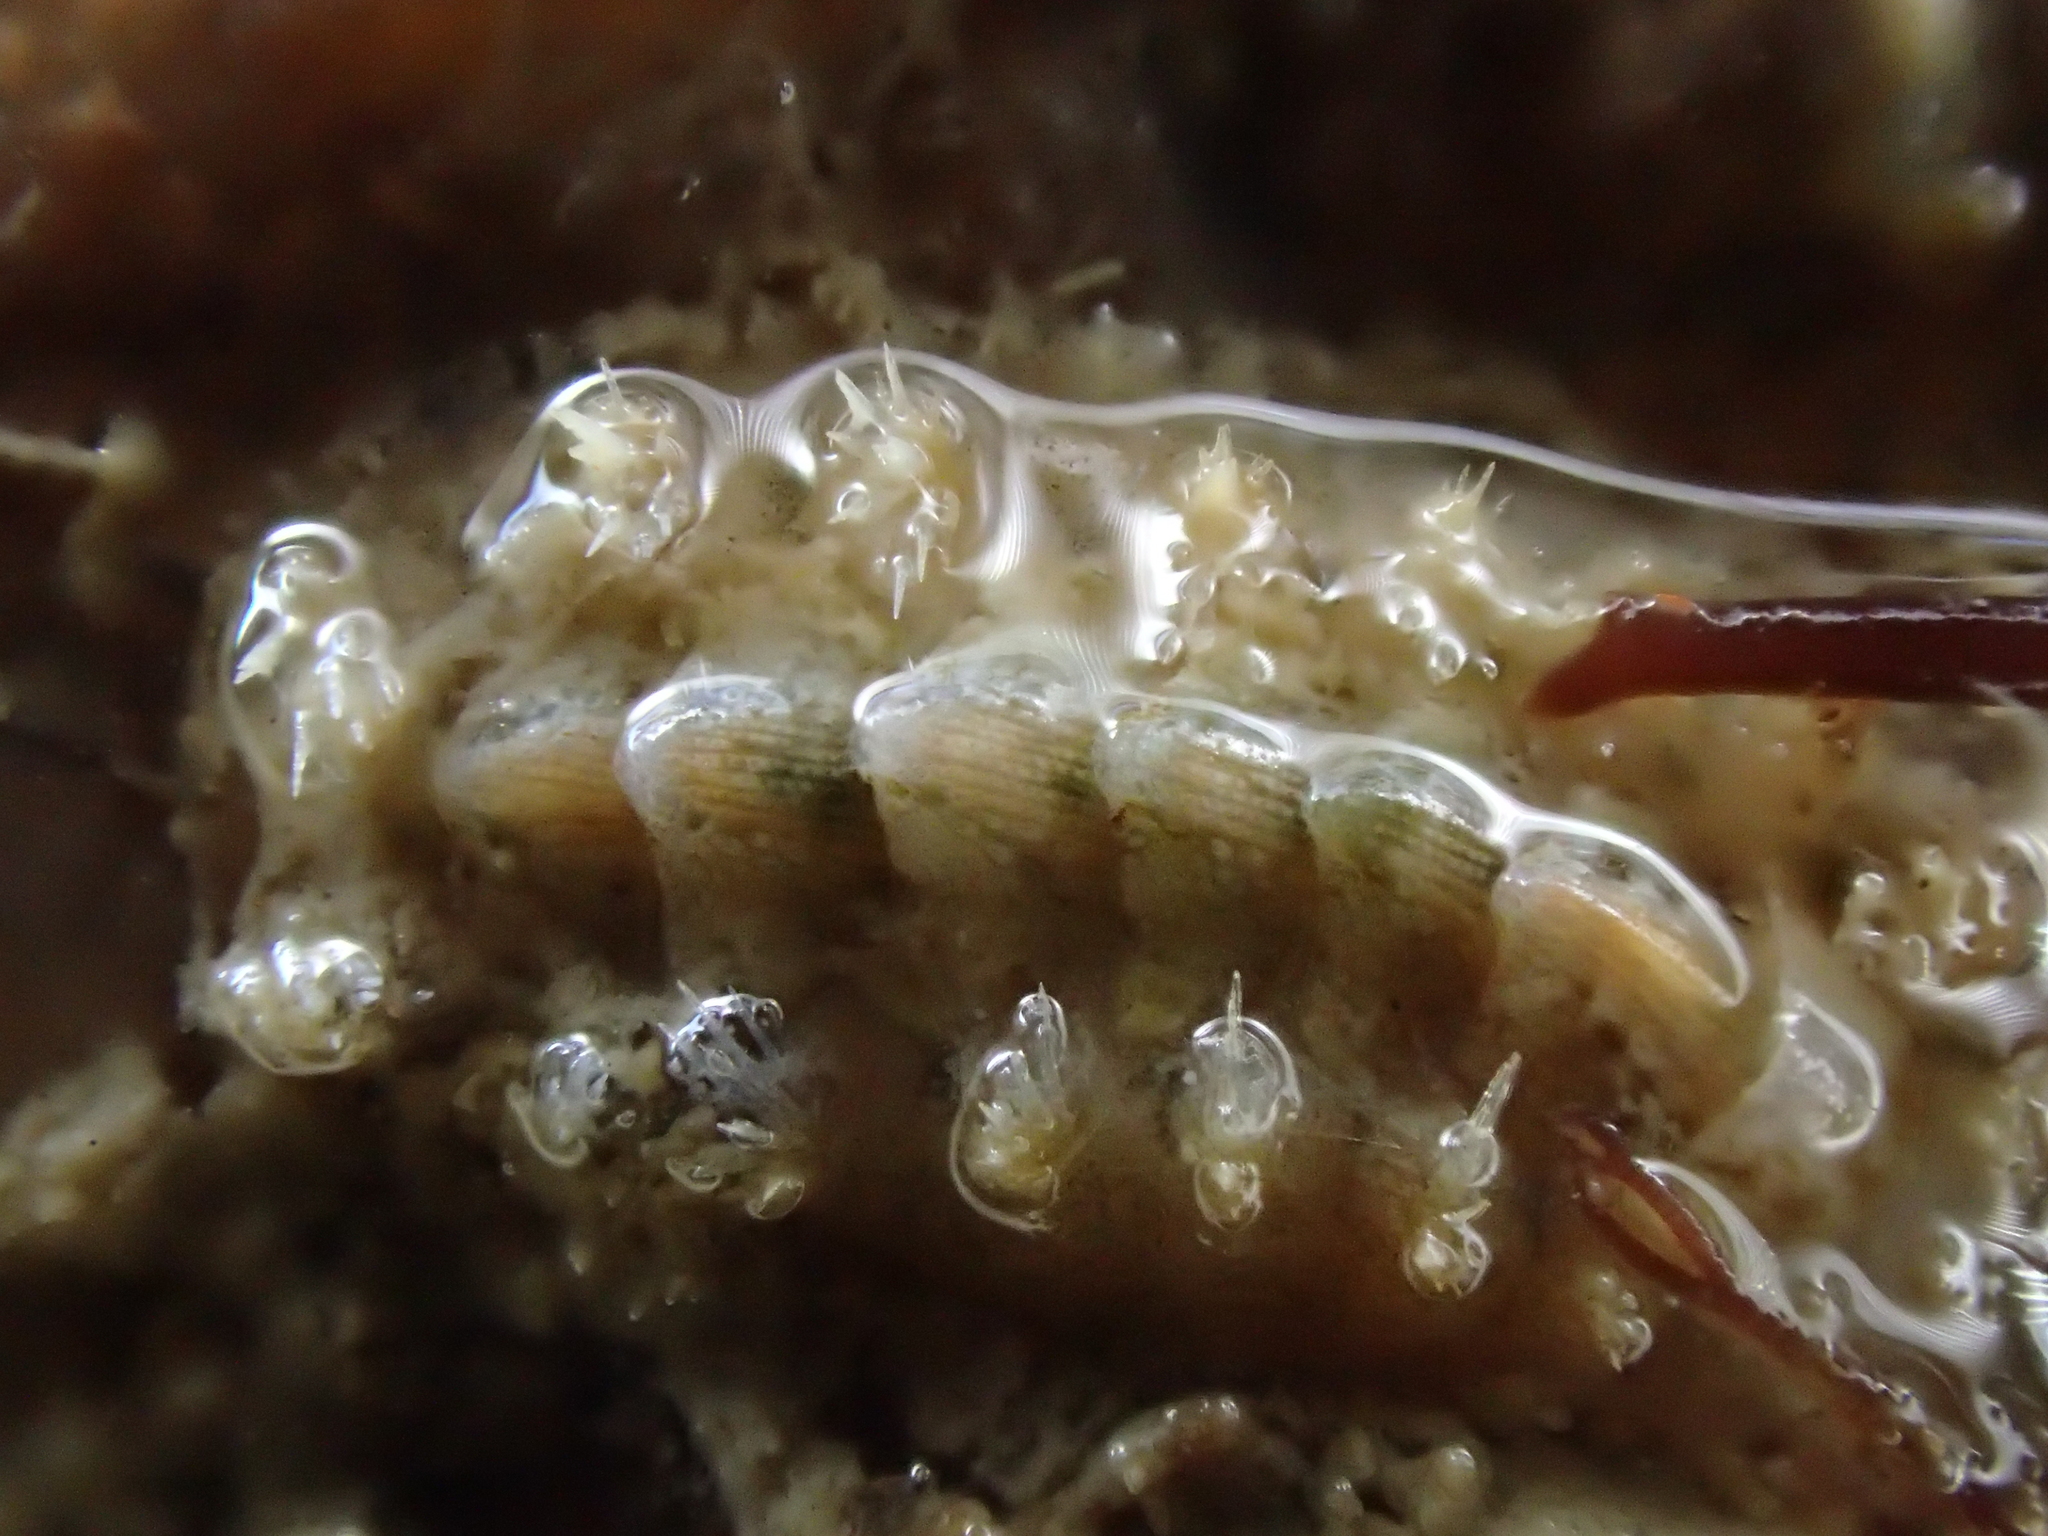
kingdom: Animalia
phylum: Mollusca
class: Polyplacophora
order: Chitonida
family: Acanthochitonidae
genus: Acanthochitona
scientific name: Acanthochitona crinita
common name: Bristly mail chiton
